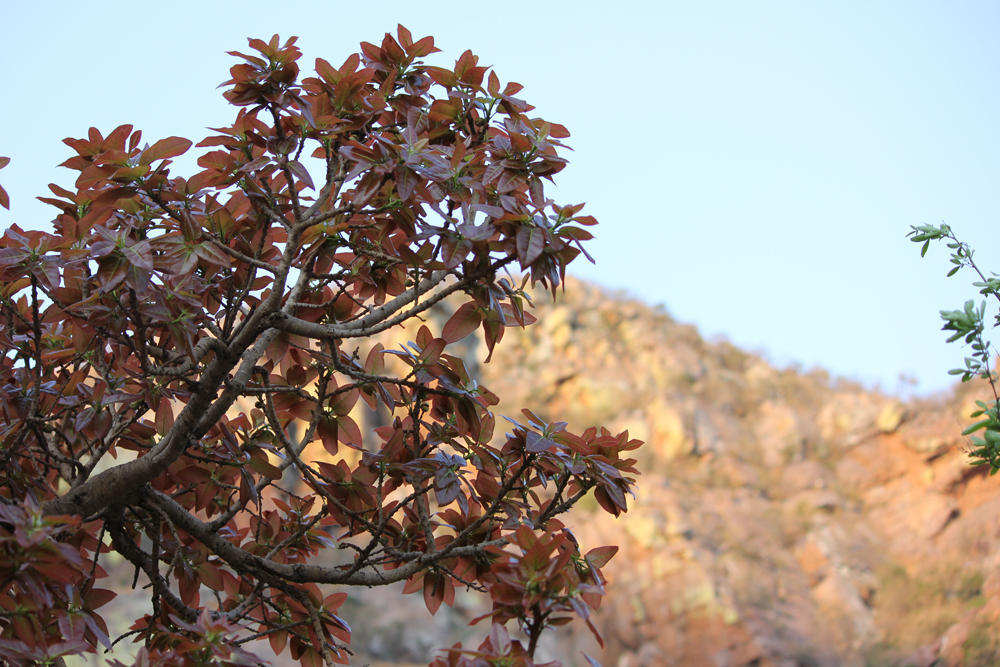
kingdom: Plantae
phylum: Tracheophyta
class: Magnoliopsida
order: Rosales
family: Moraceae
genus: Ficus
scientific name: Ficus ingens
